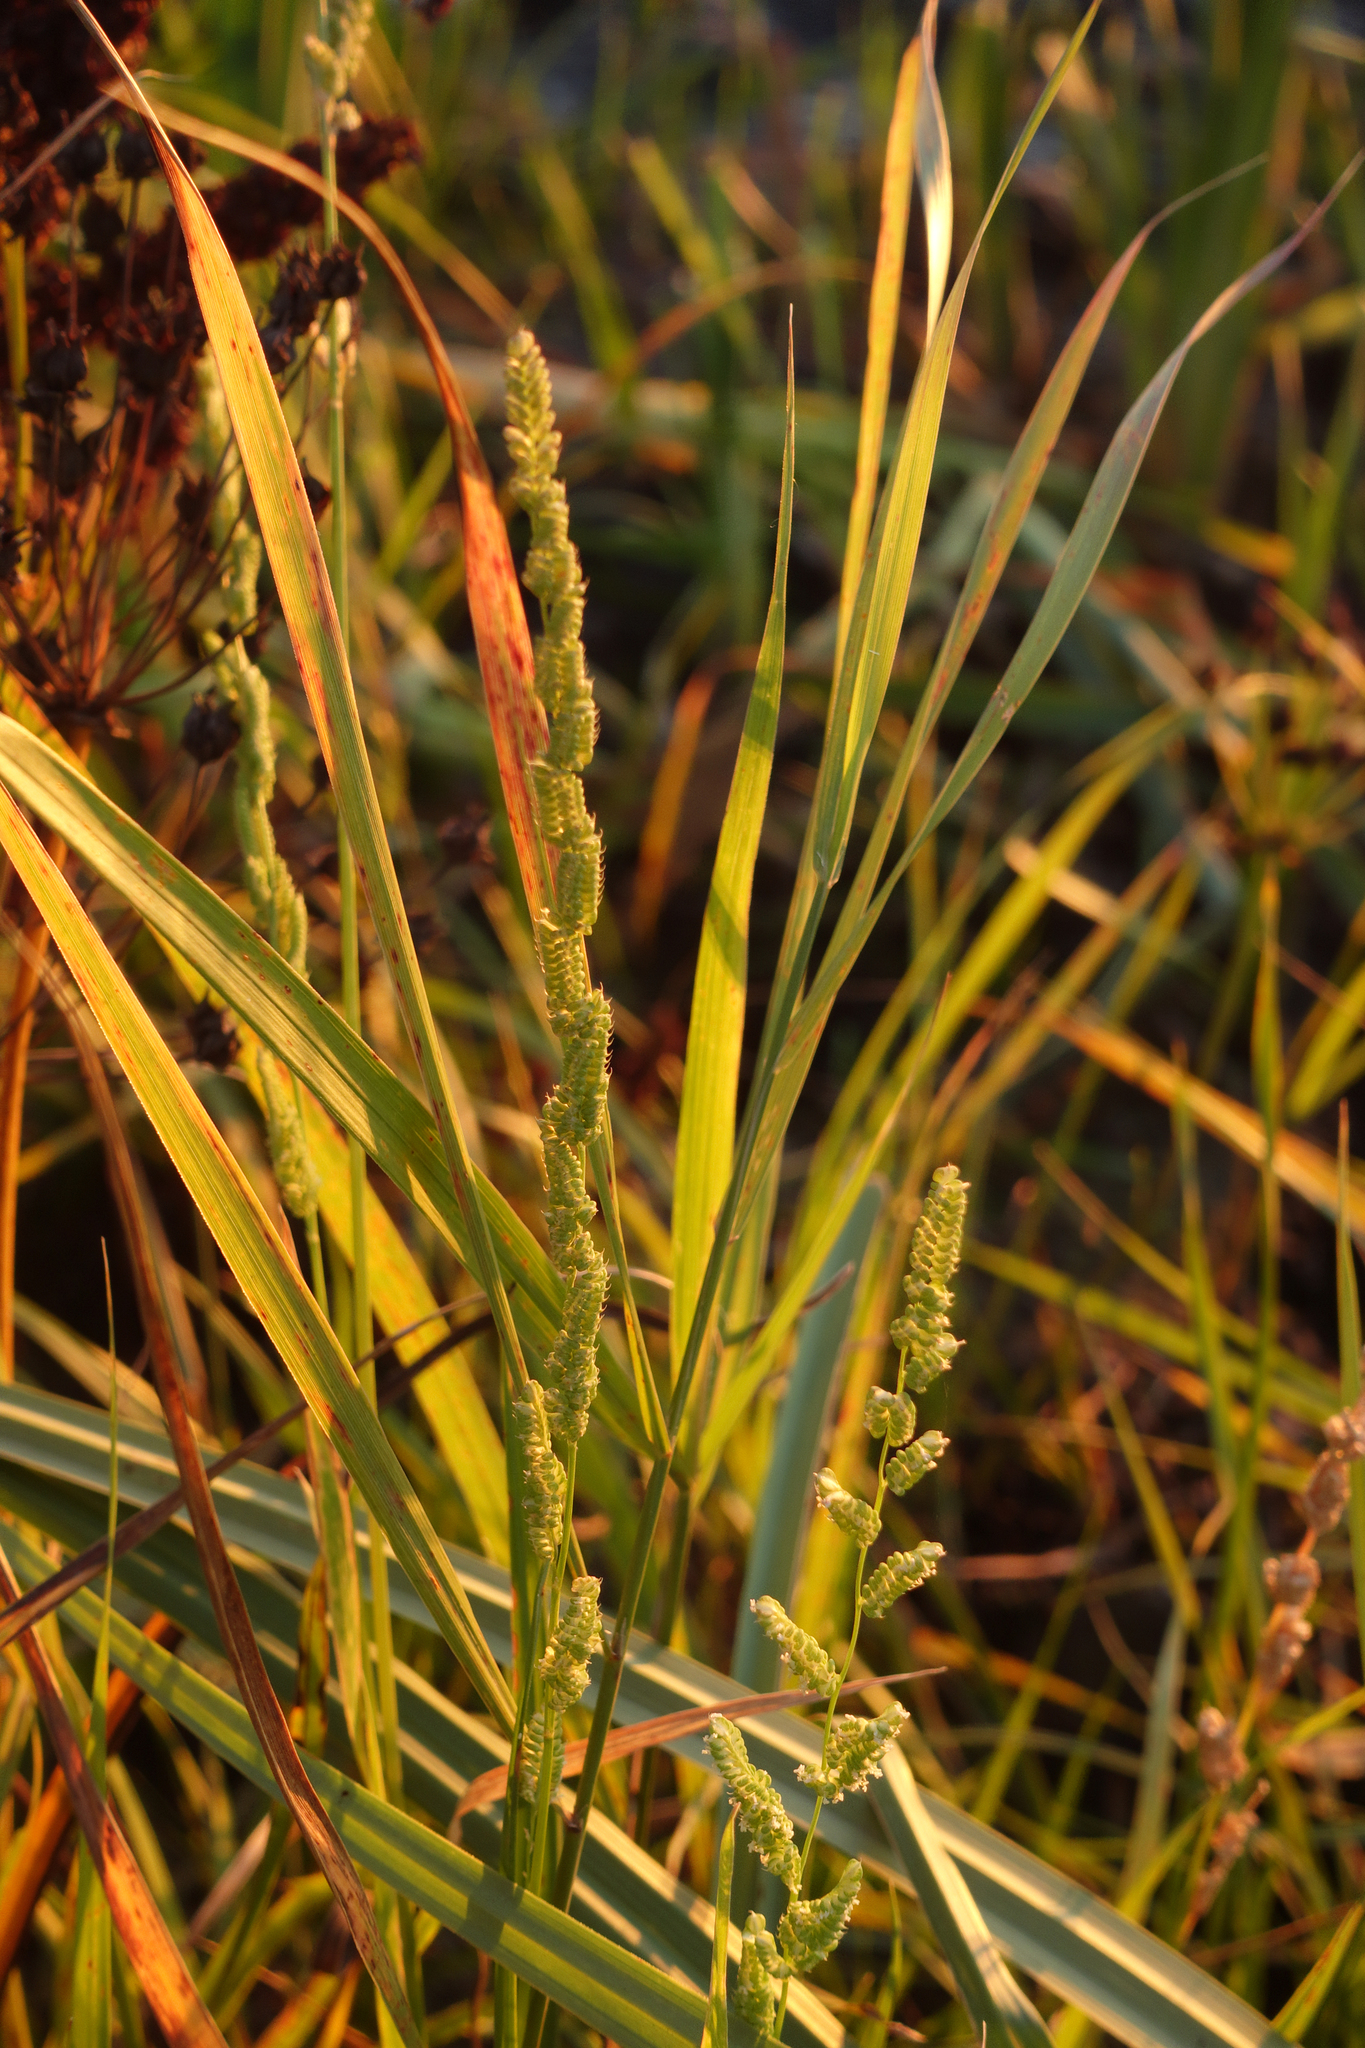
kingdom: Plantae
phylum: Tracheophyta
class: Liliopsida
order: Poales
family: Poaceae
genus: Beckmannia
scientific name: Beckmannia syzigachne
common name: American slough-grass
